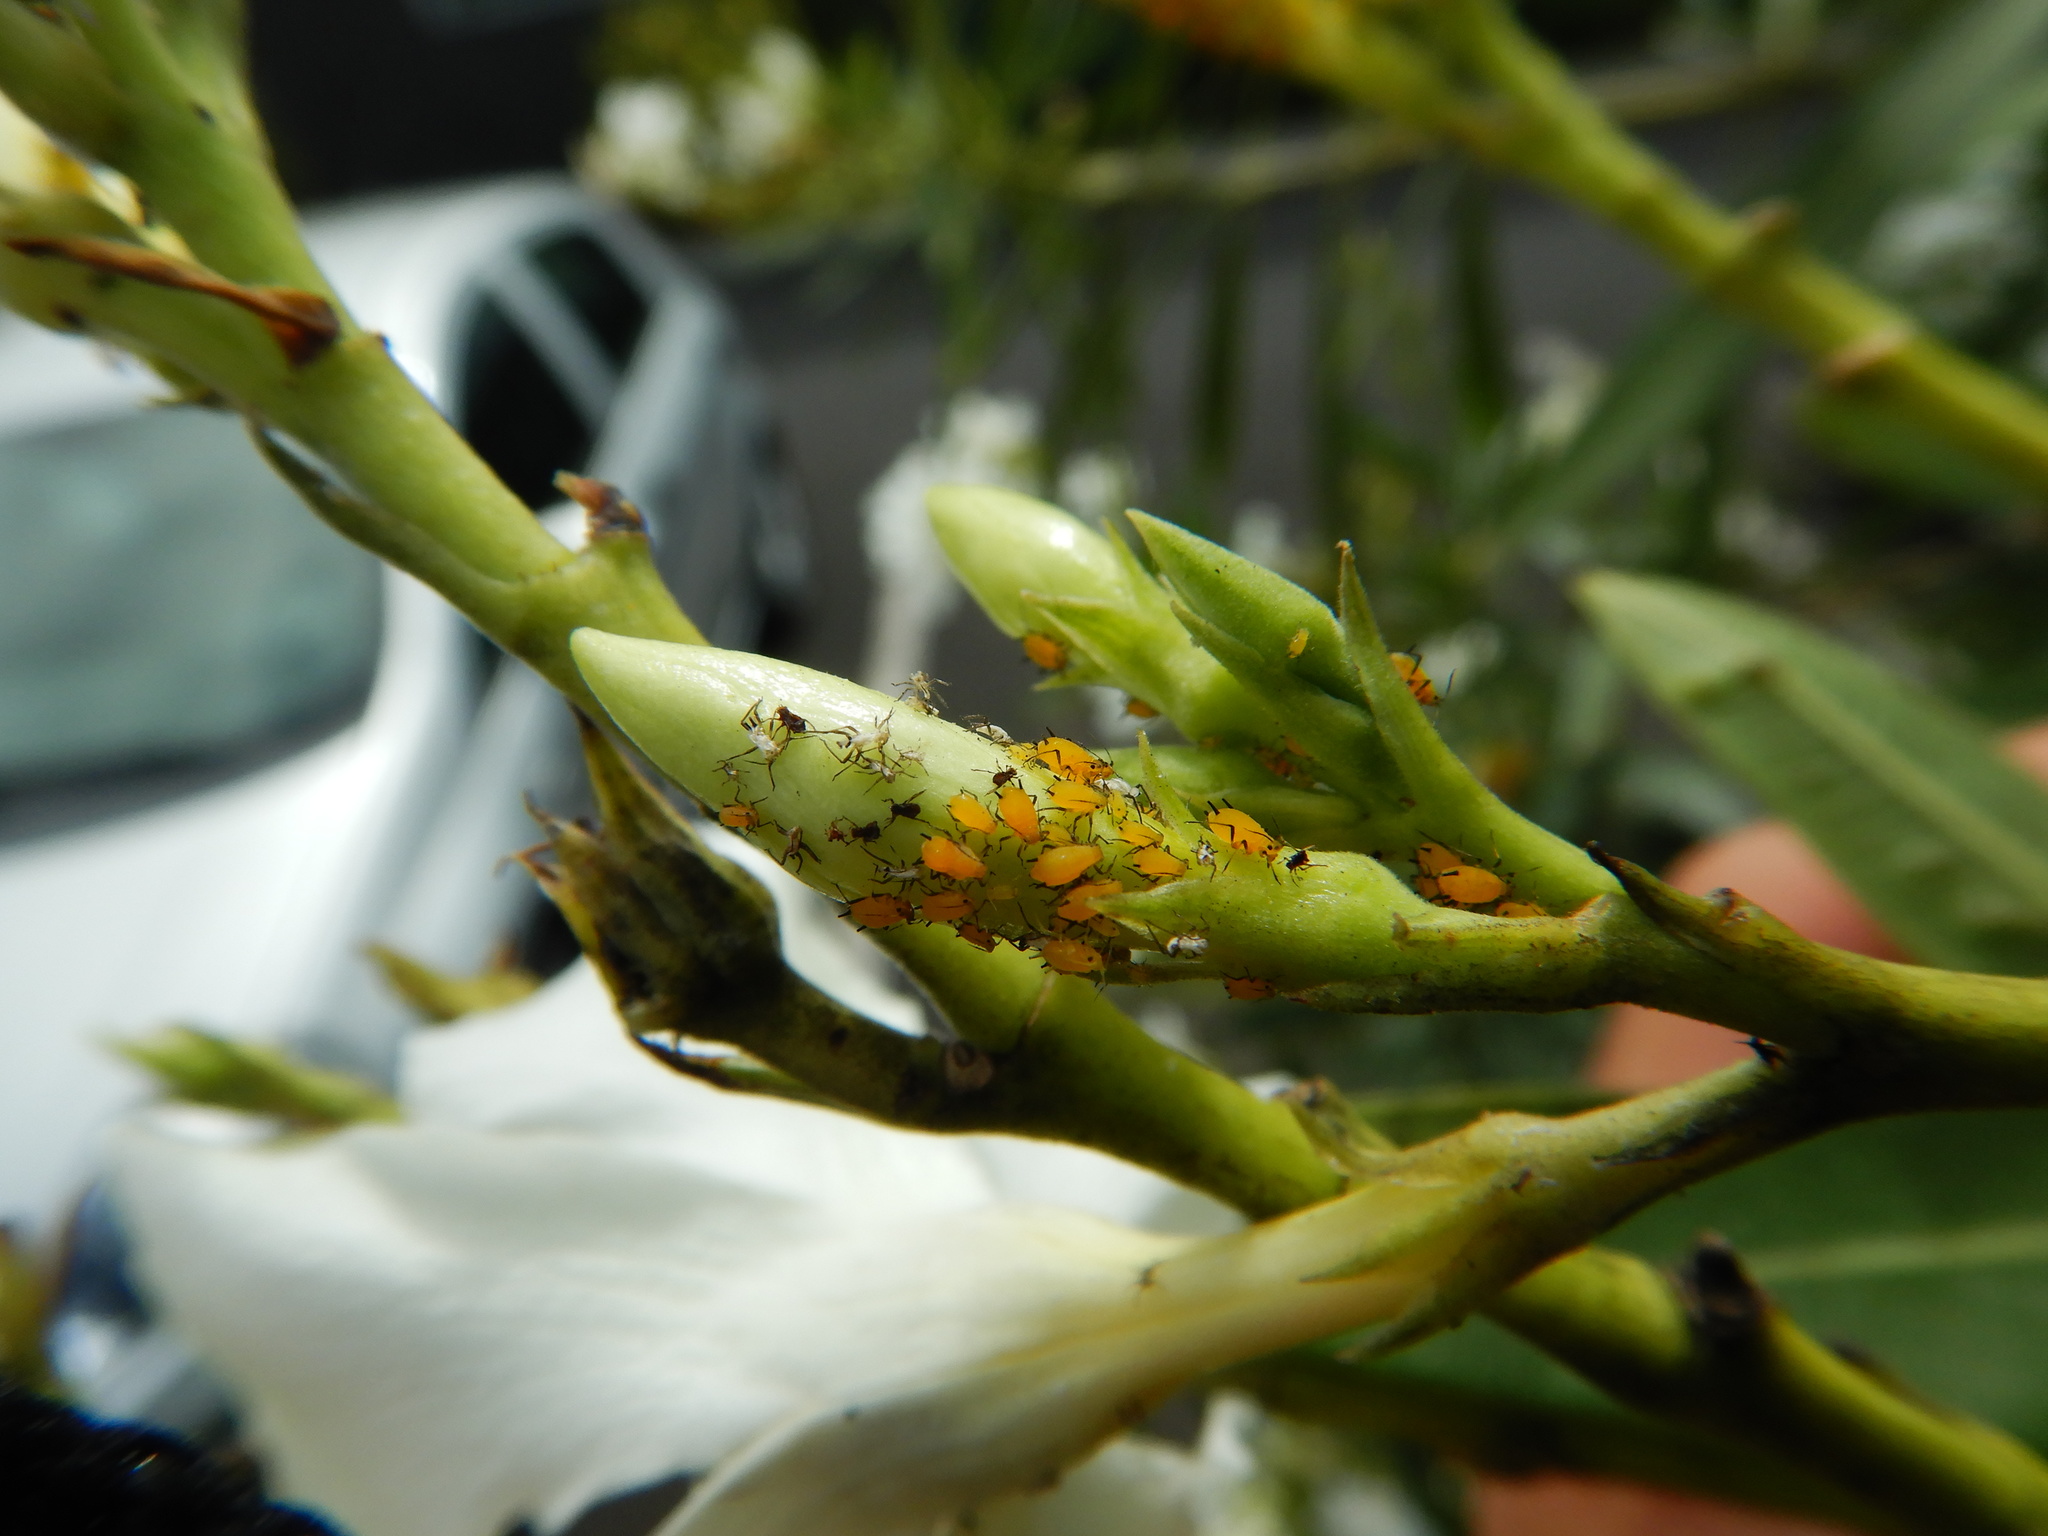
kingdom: Animalia
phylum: Arthropoda
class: Insecta
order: Hemiptera
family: Aphididae
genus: Aphis
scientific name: Aphis nerii
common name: Oleander aphid
